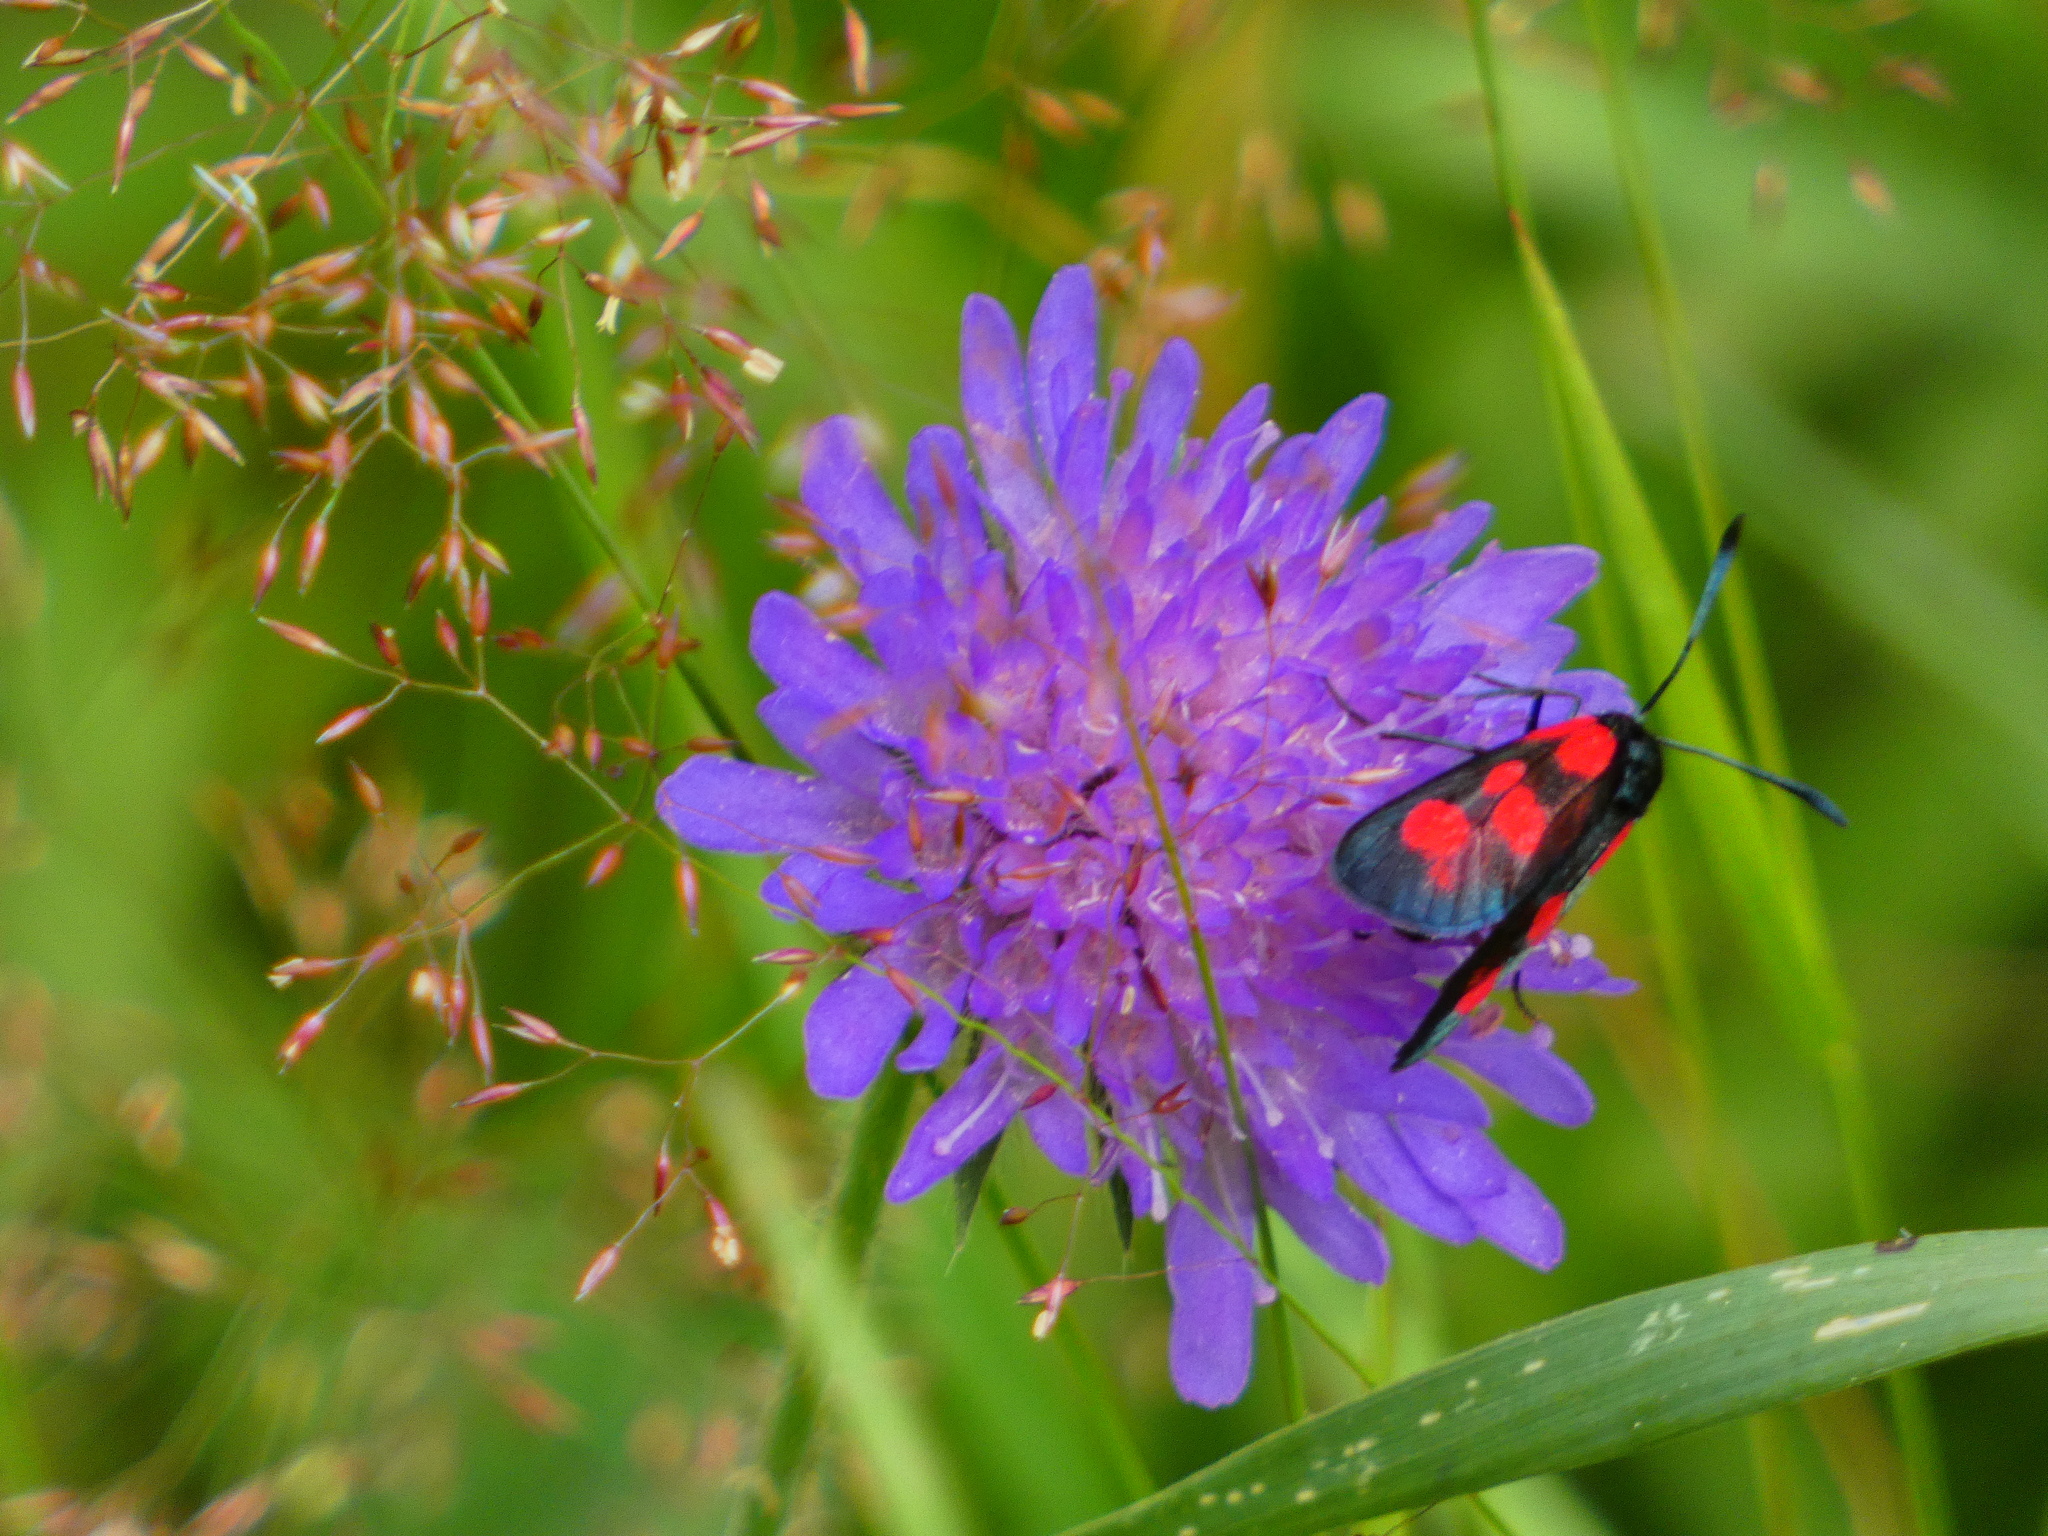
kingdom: Animalia
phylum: Arthropoda
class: Insecta
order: Lepidoptera
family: Zygaenidae
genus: Zygaena
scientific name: Zygaena viciae
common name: New forest burnet
